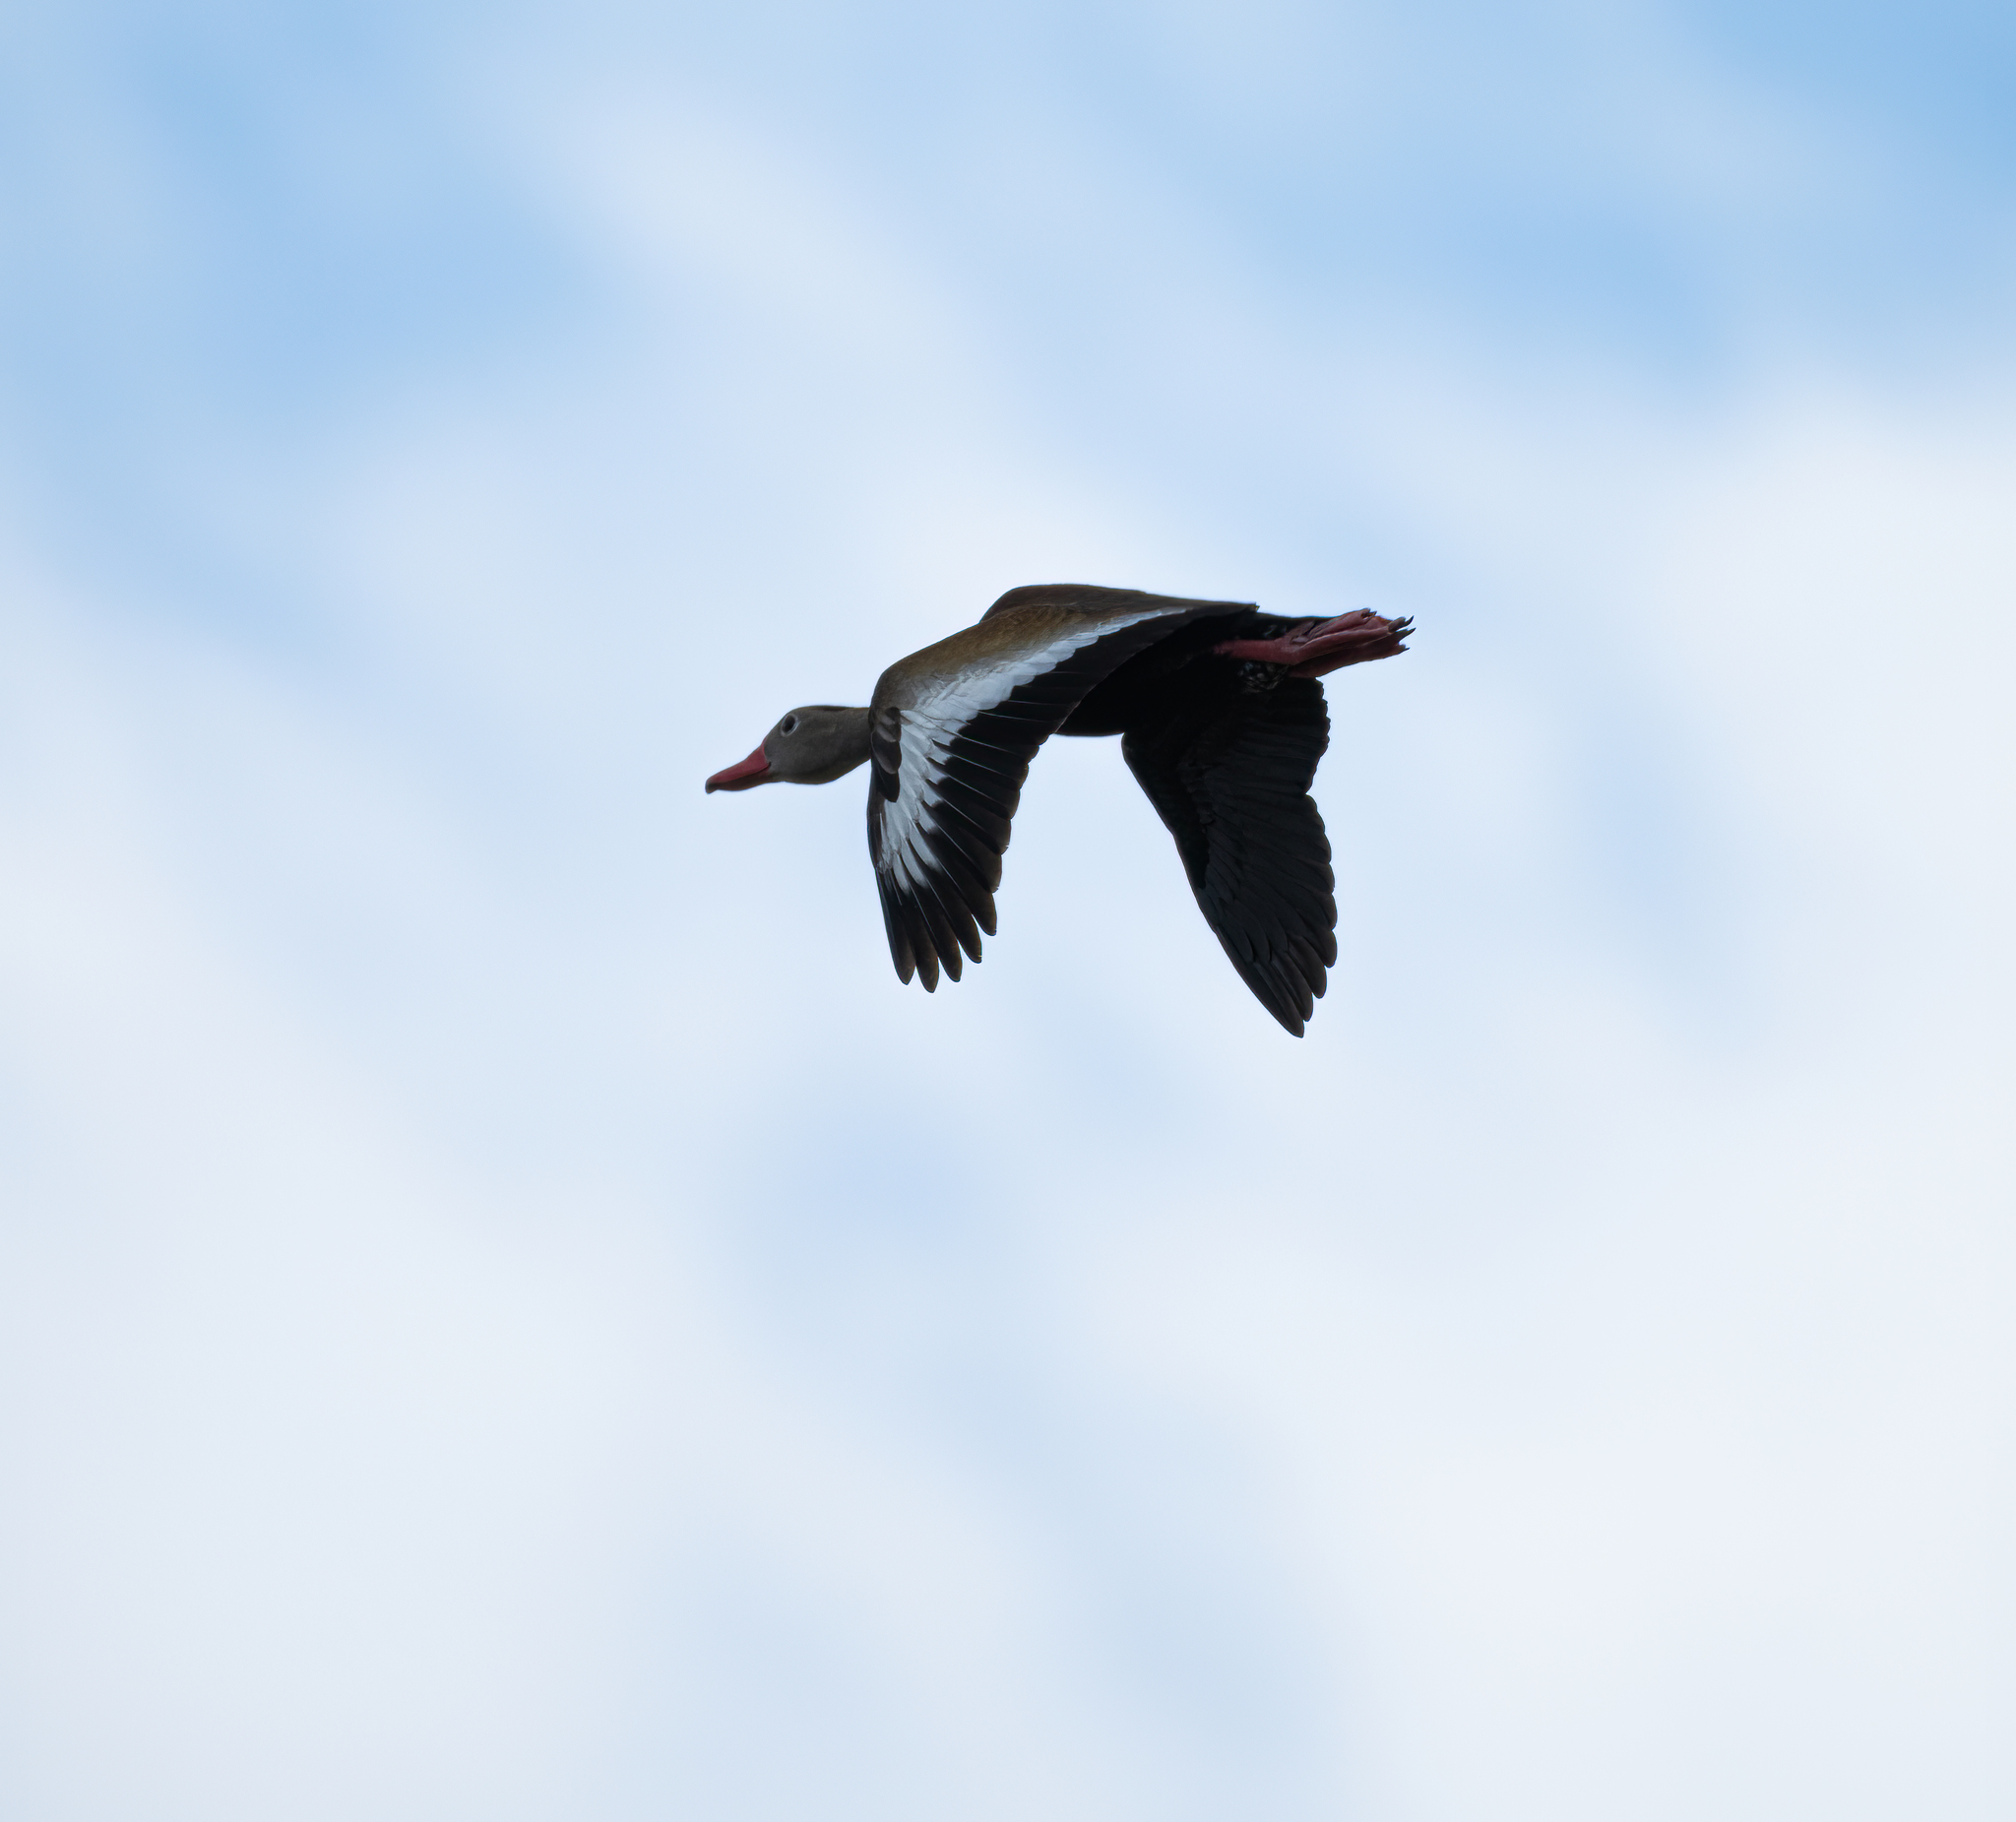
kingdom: Animalia
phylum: Chordata
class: Aves
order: Anseriformes
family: Anatidae
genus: Dendrocygna
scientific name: Dendrocygna autumnalis
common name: Black-bellied whistling duck
